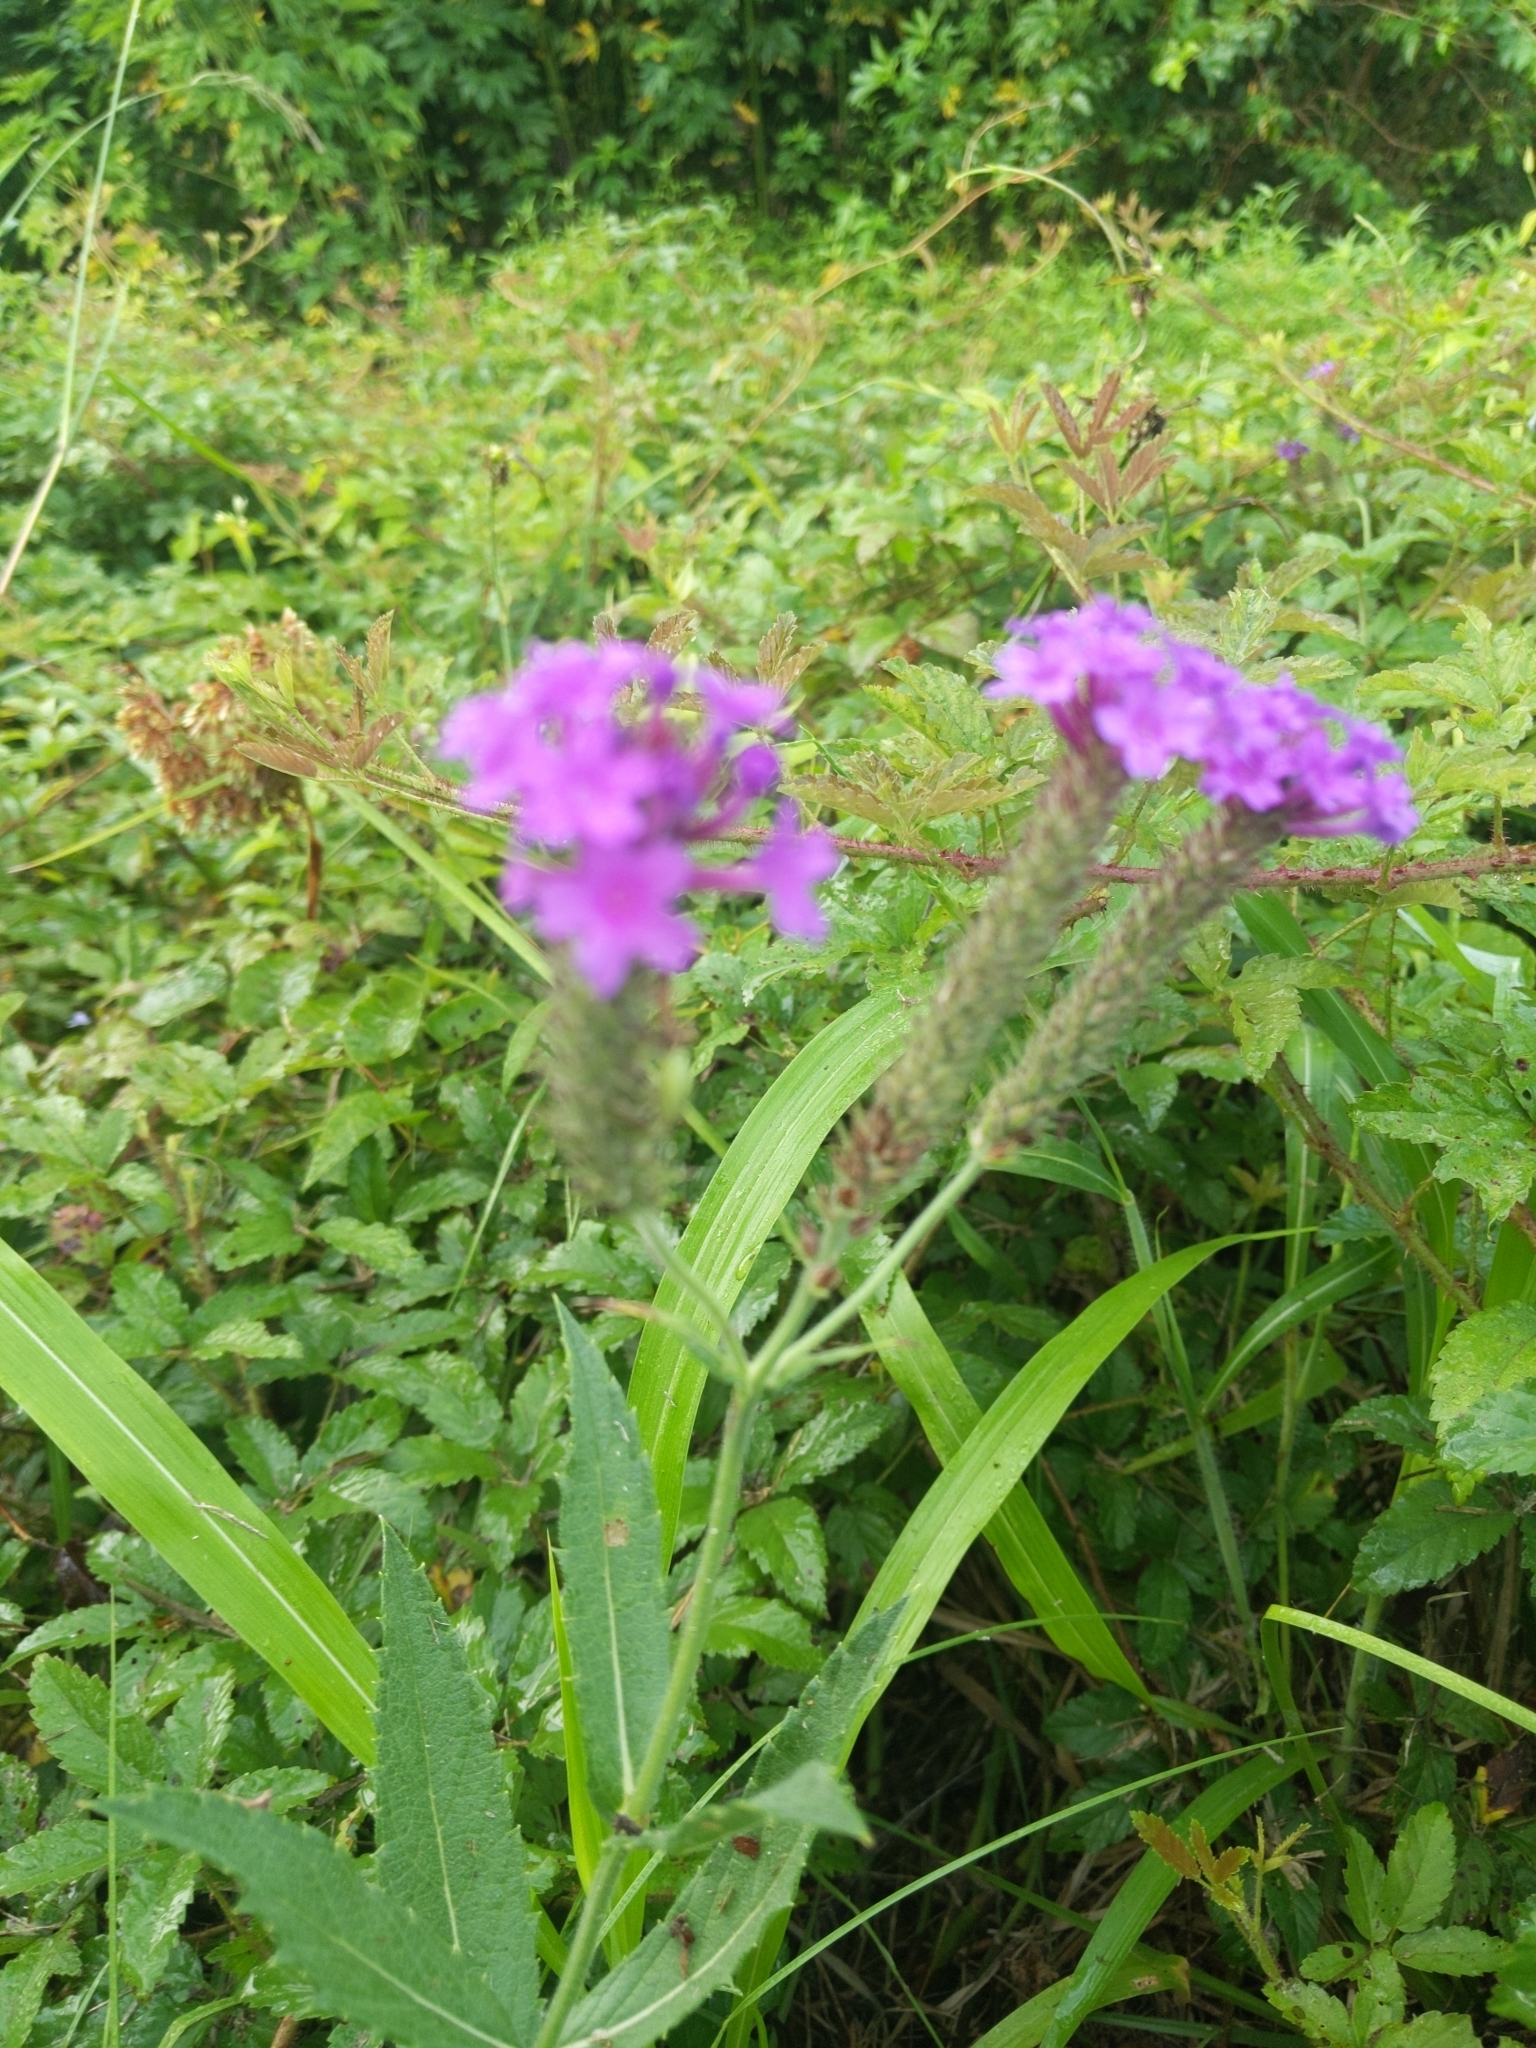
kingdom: Plantae
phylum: Tracheophyta
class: Magnoliopsida
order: Lamiales
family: Verbenaceae
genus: Verbena
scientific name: Verbena rigida
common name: Slender vervain
